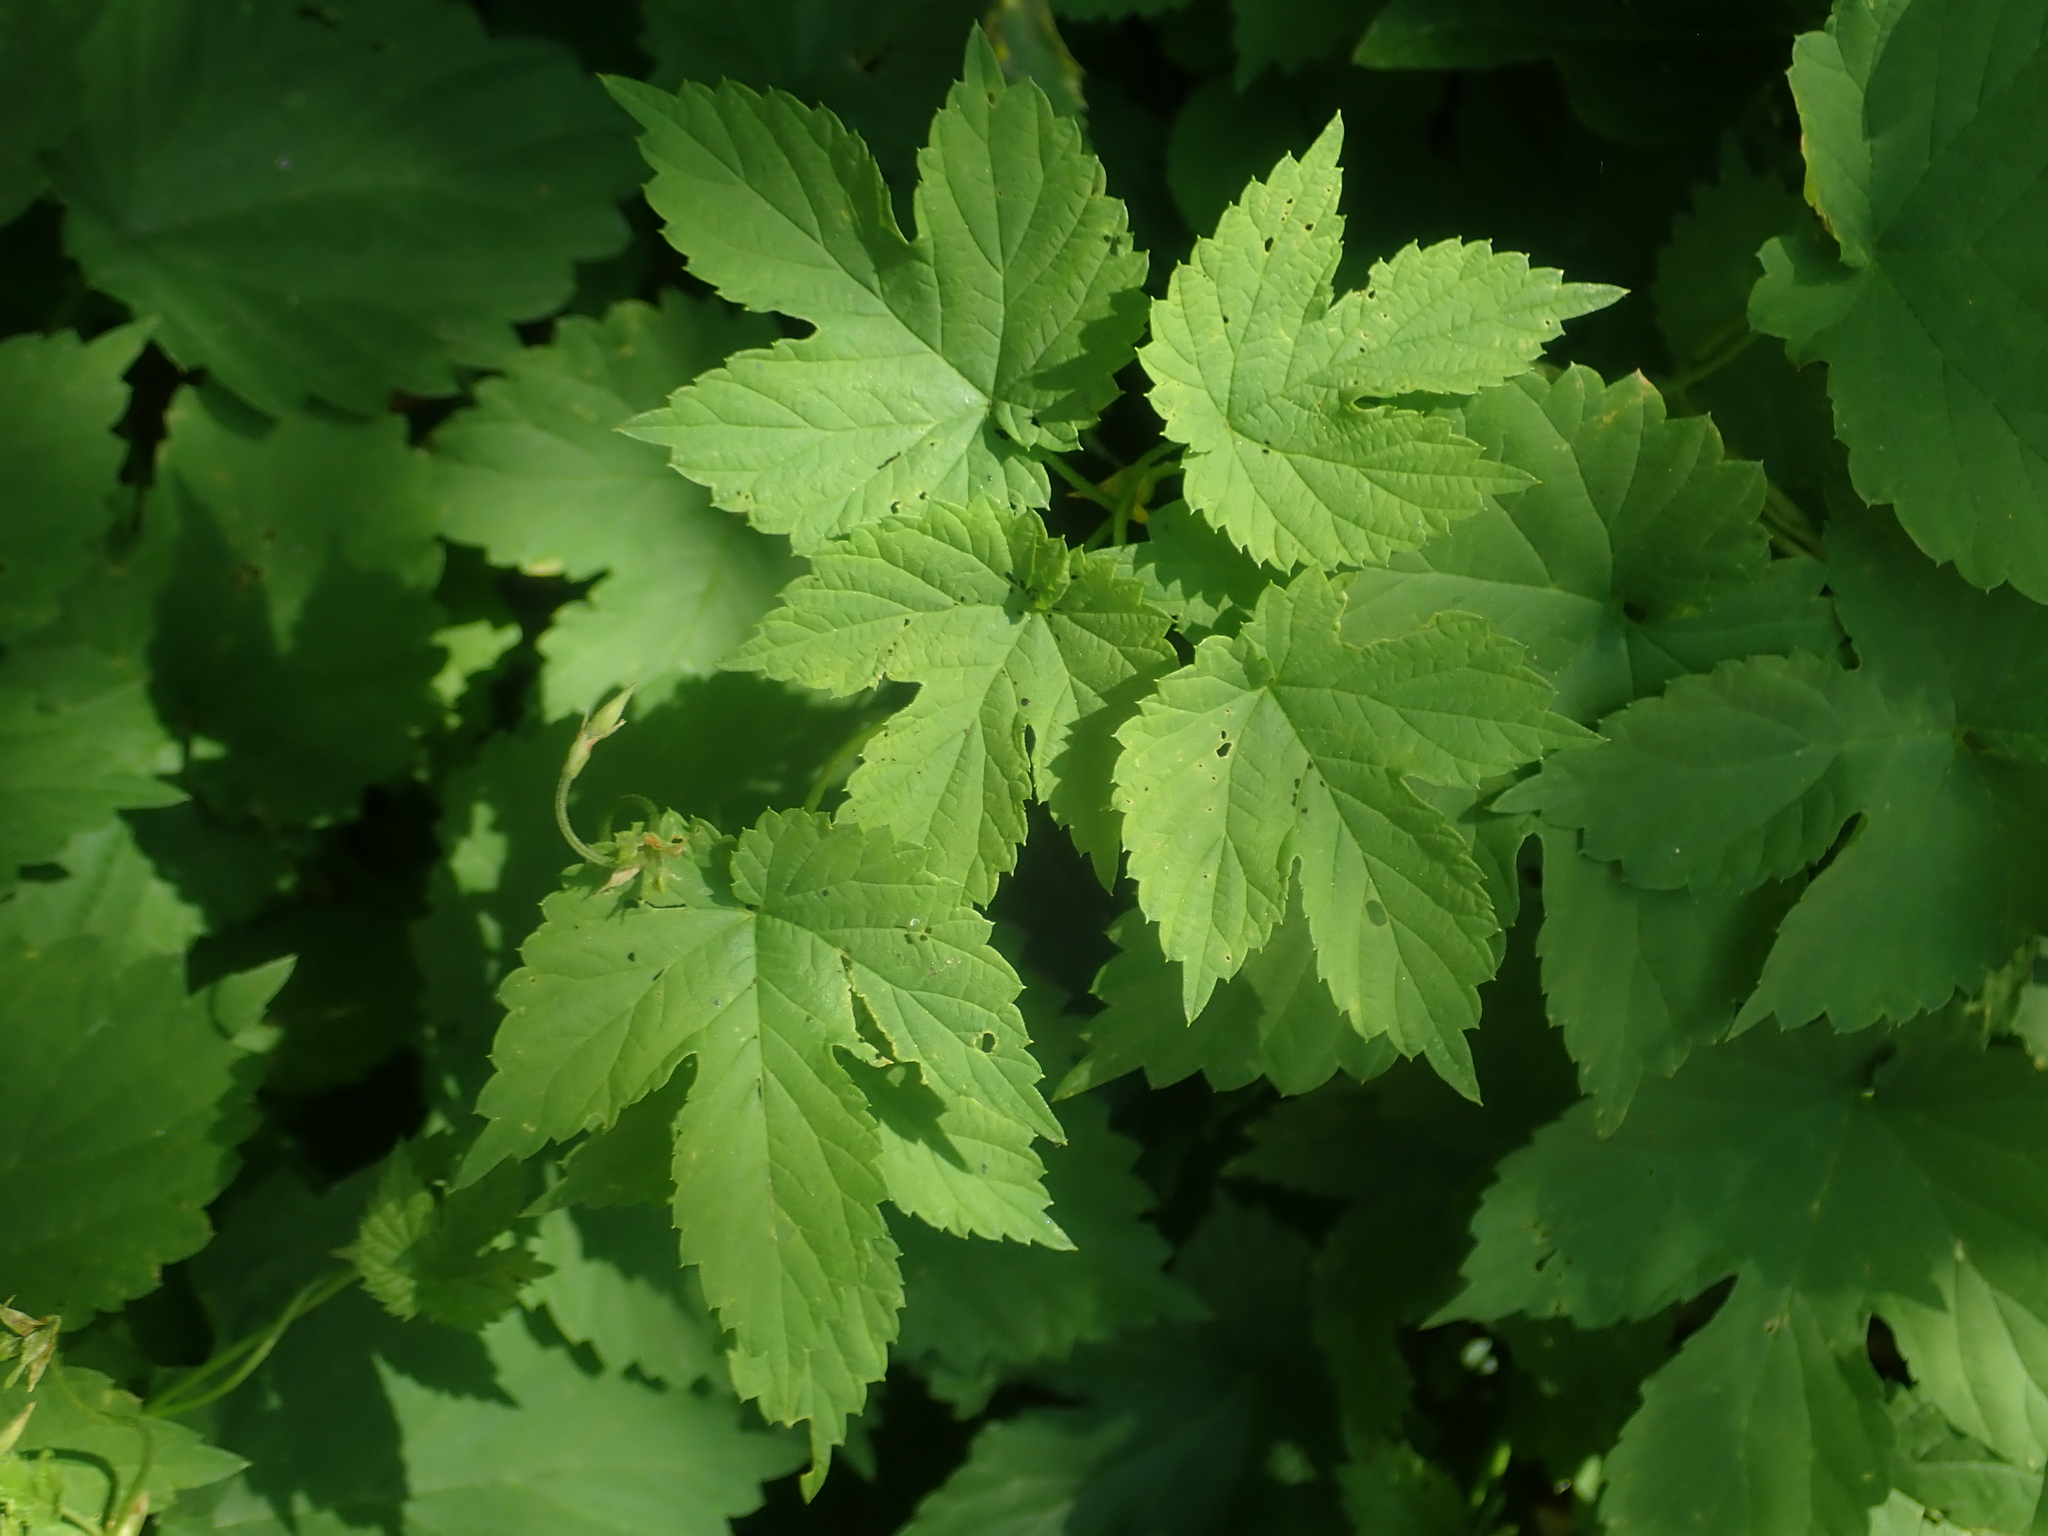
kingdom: Plantae
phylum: Tracheophyta
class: Magnoliopsida
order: Rosales
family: Cannabaceae
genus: Humulus
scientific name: Humulus lupulus
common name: Hop
